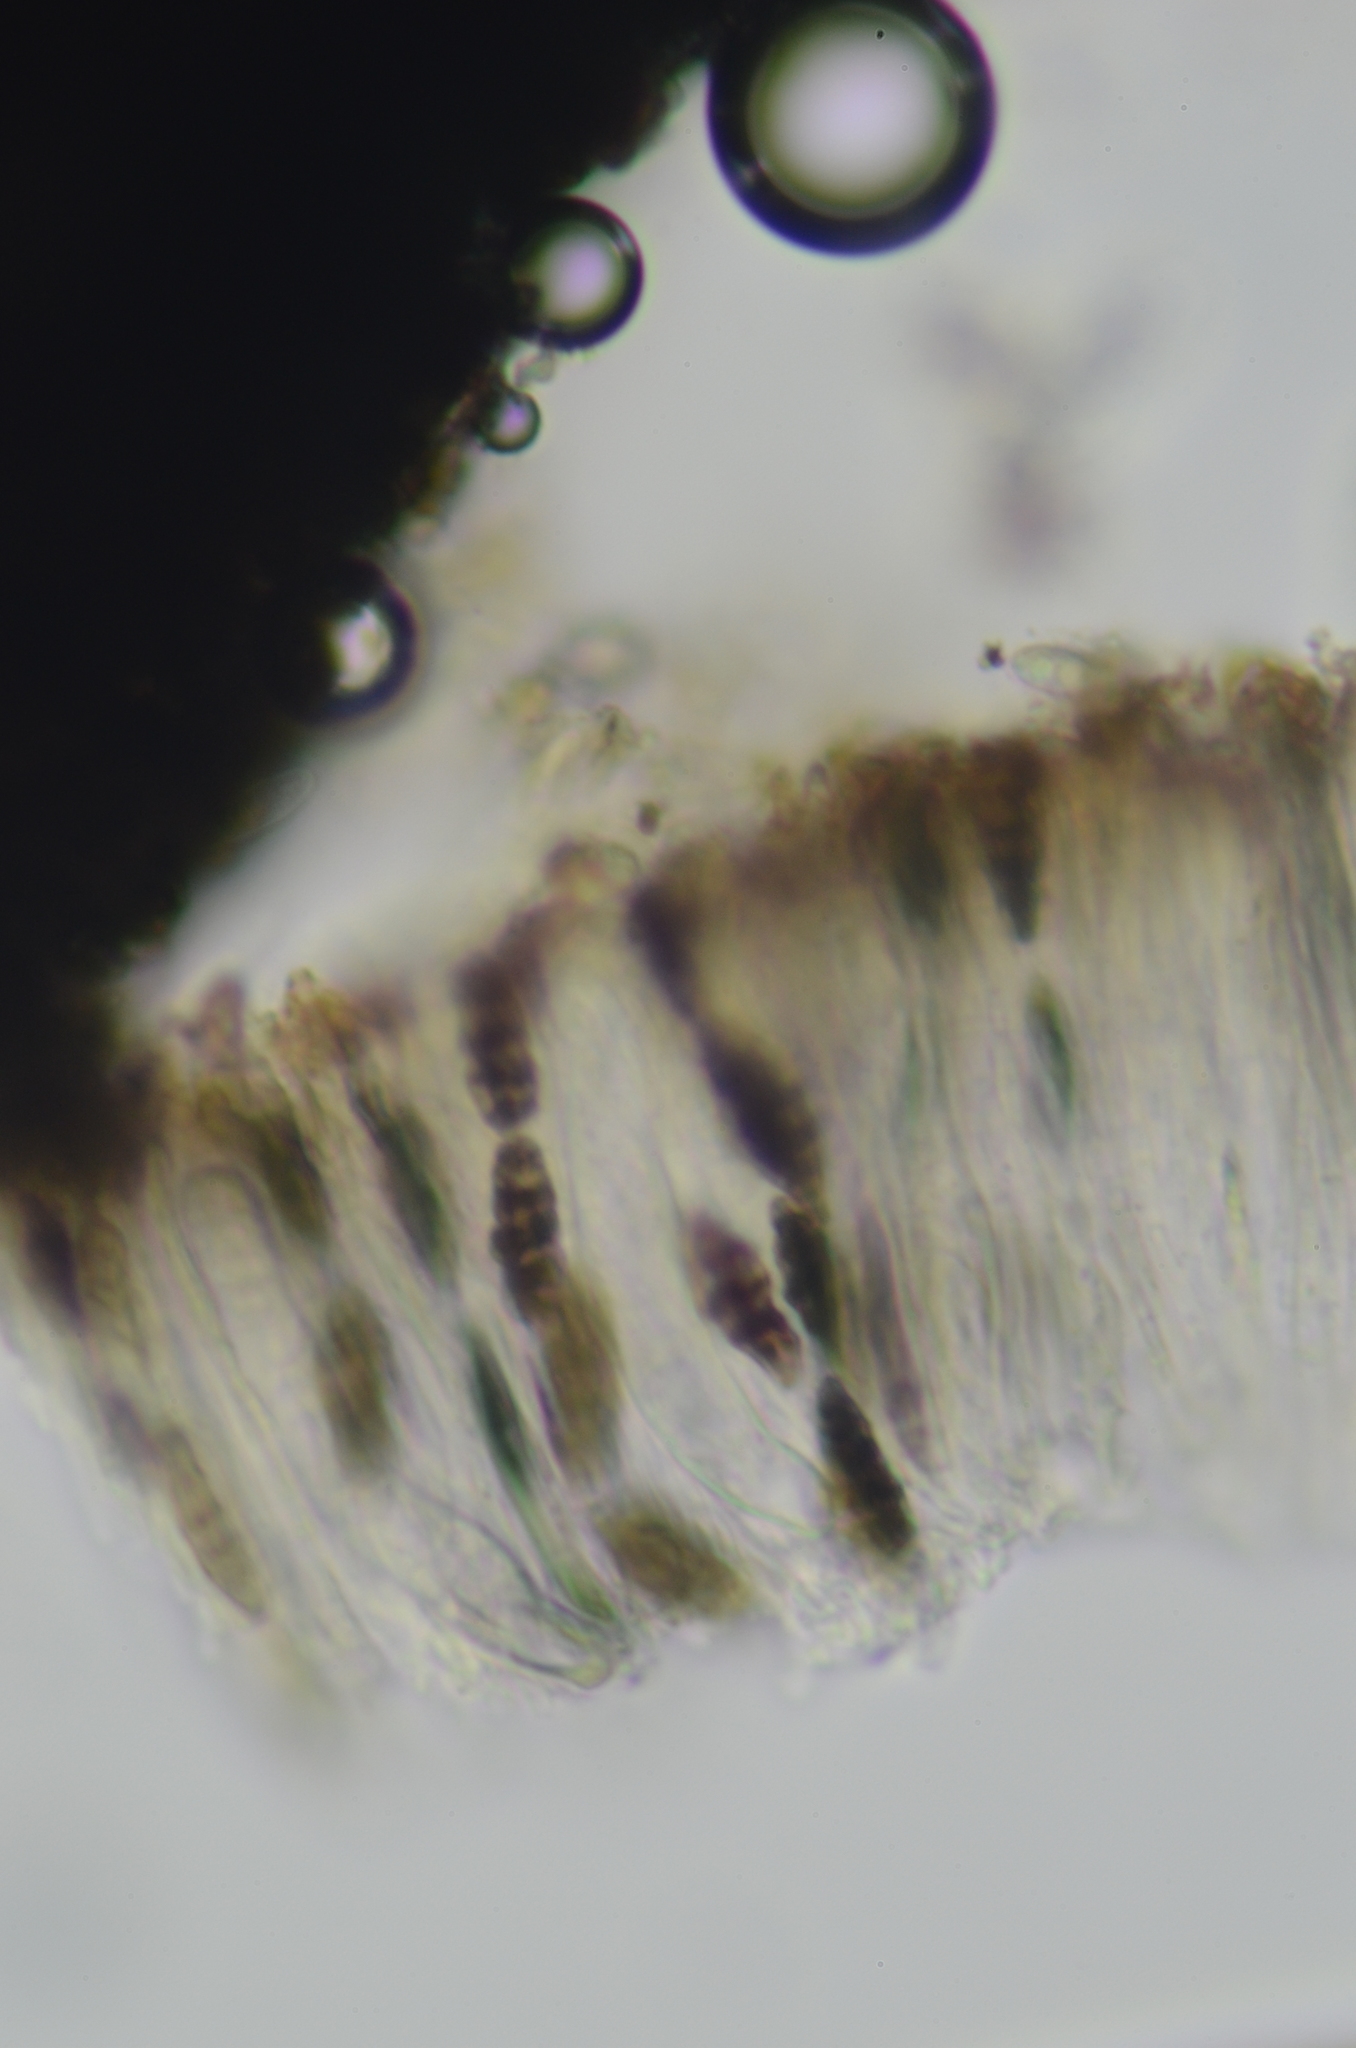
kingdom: Fungi
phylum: Ascomycota
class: Lecanoromycetes
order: Ostropales
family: Graphidaceae
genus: Diploschistes
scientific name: Diploschistes muscorum
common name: Cowpie lichen
